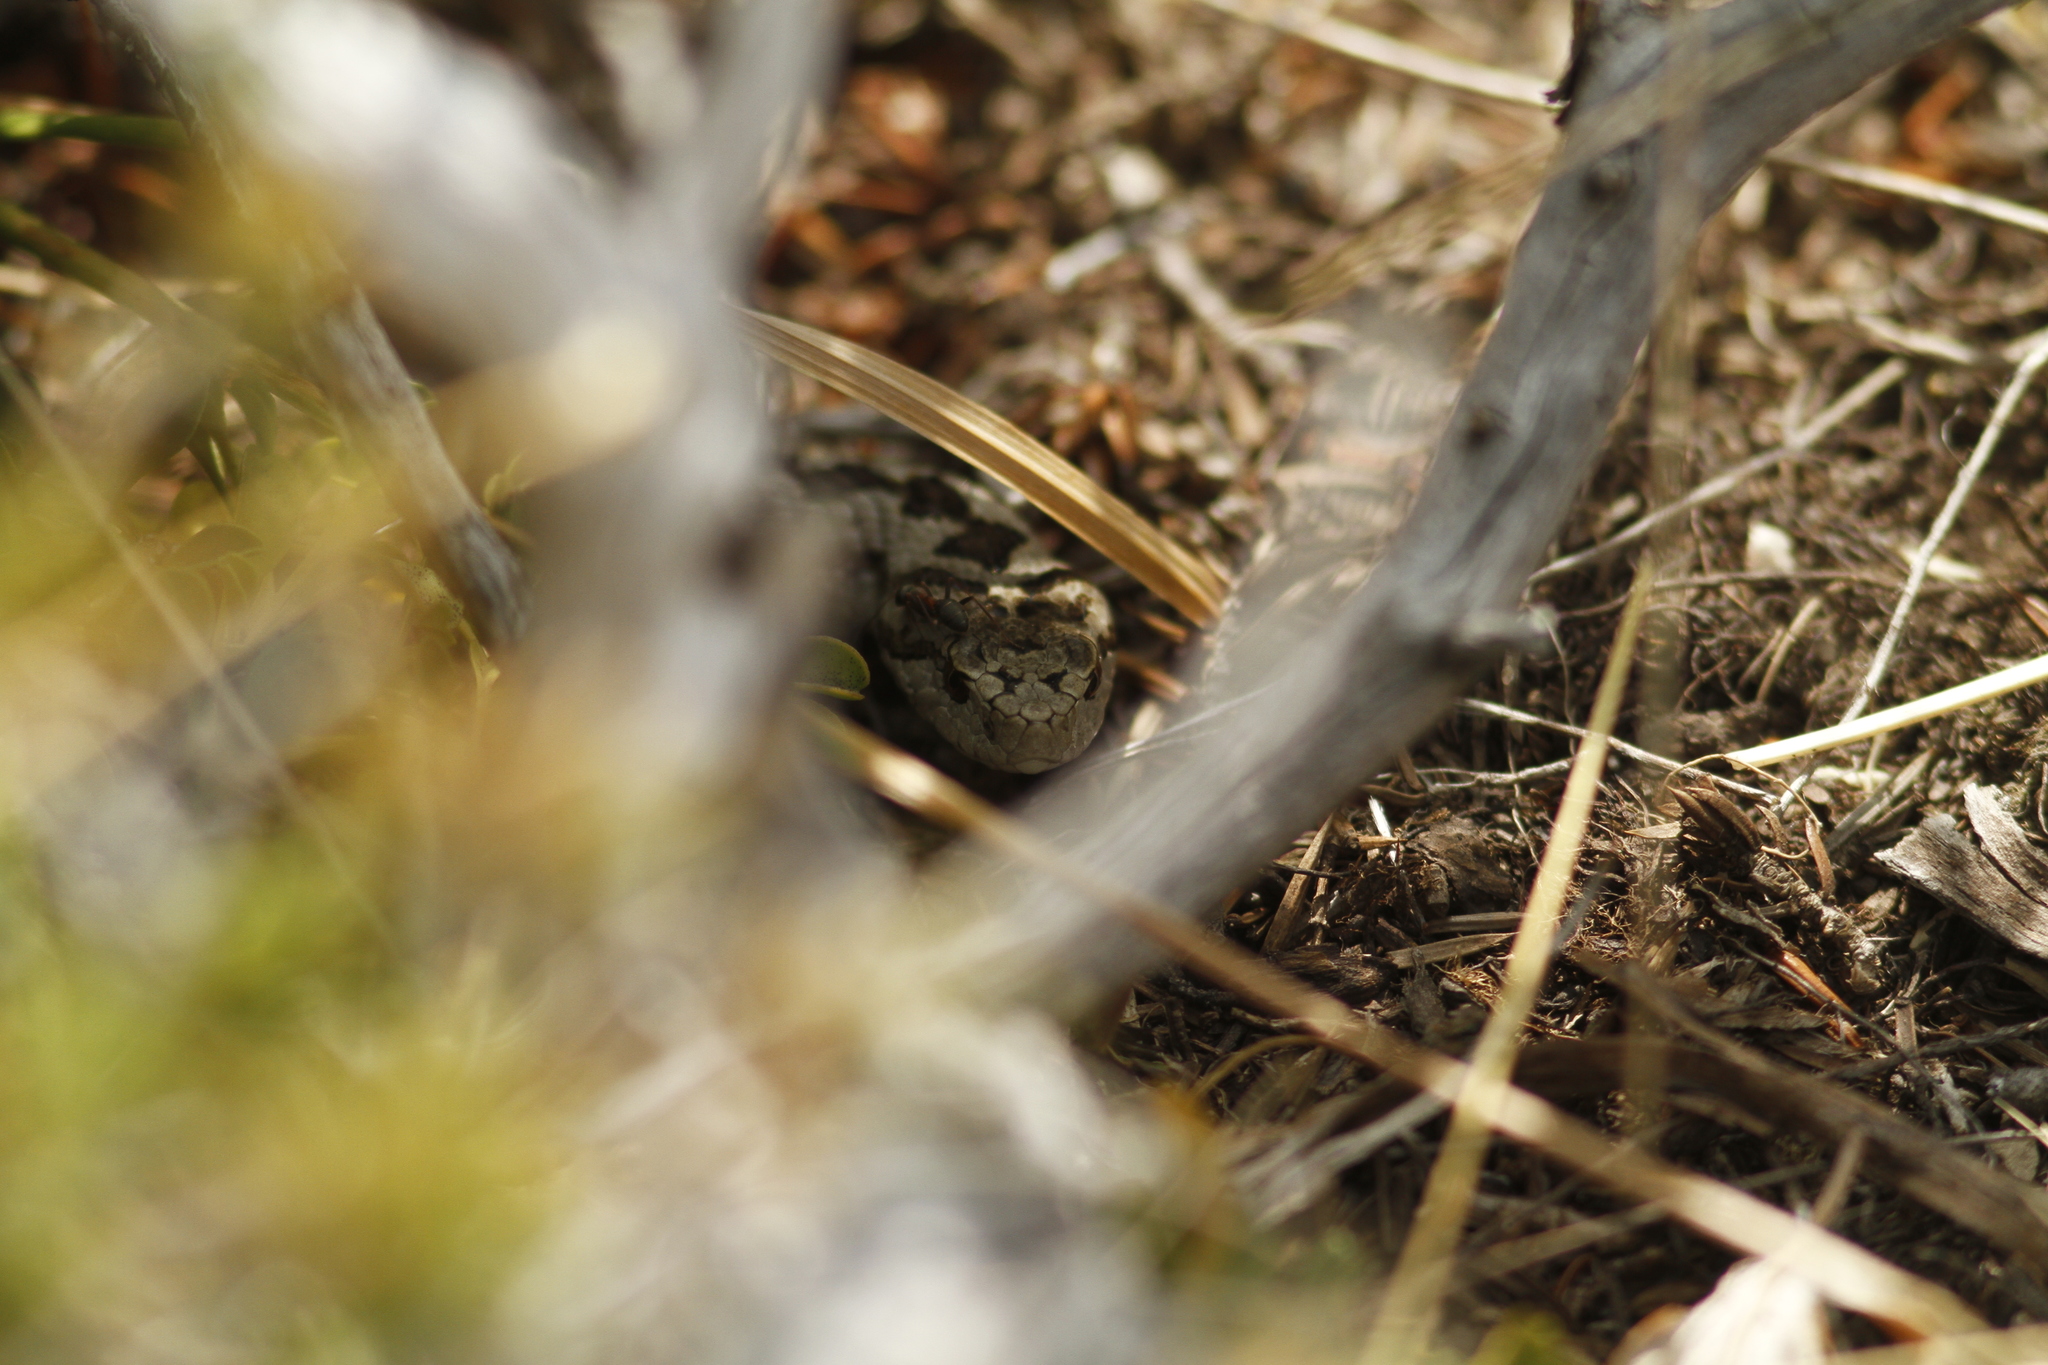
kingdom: Animalia
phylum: Chordata
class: Squamata
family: Viperidae
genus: Vipera
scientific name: Vipera ursinii
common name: Meadow viper
